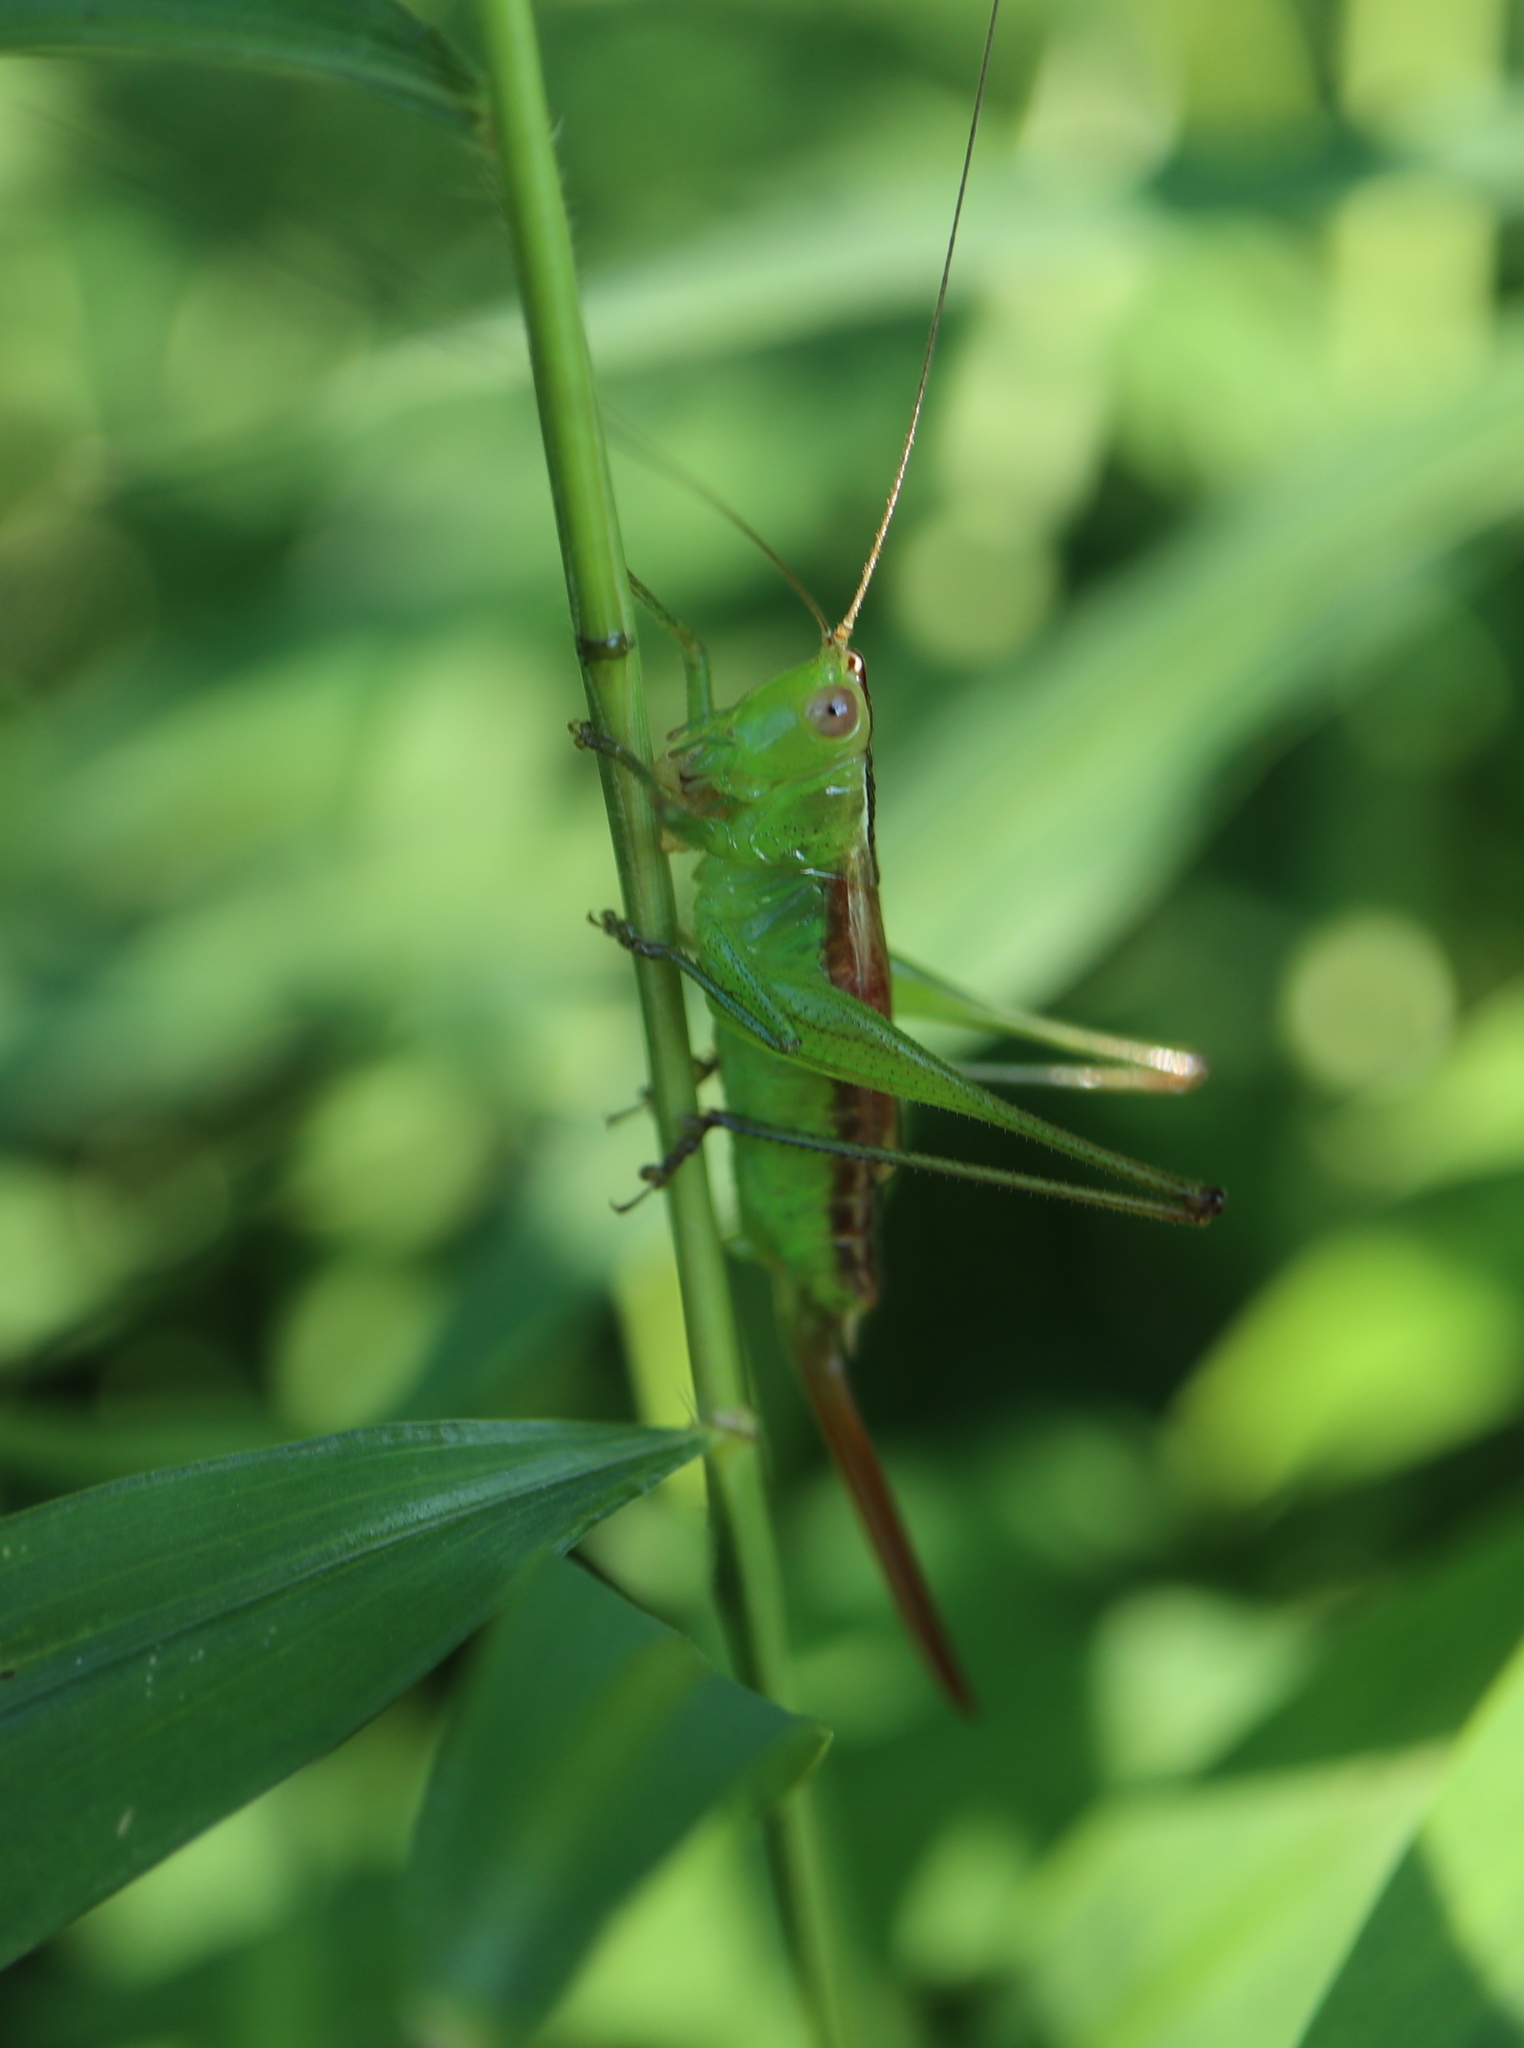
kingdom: Animalia
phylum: Arthropoda
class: Insecta
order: Orthoptera
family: Tettigoniidae
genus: Conocephalus
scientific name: Conocephalus brevipennis
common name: Short-winged meadow katydid
